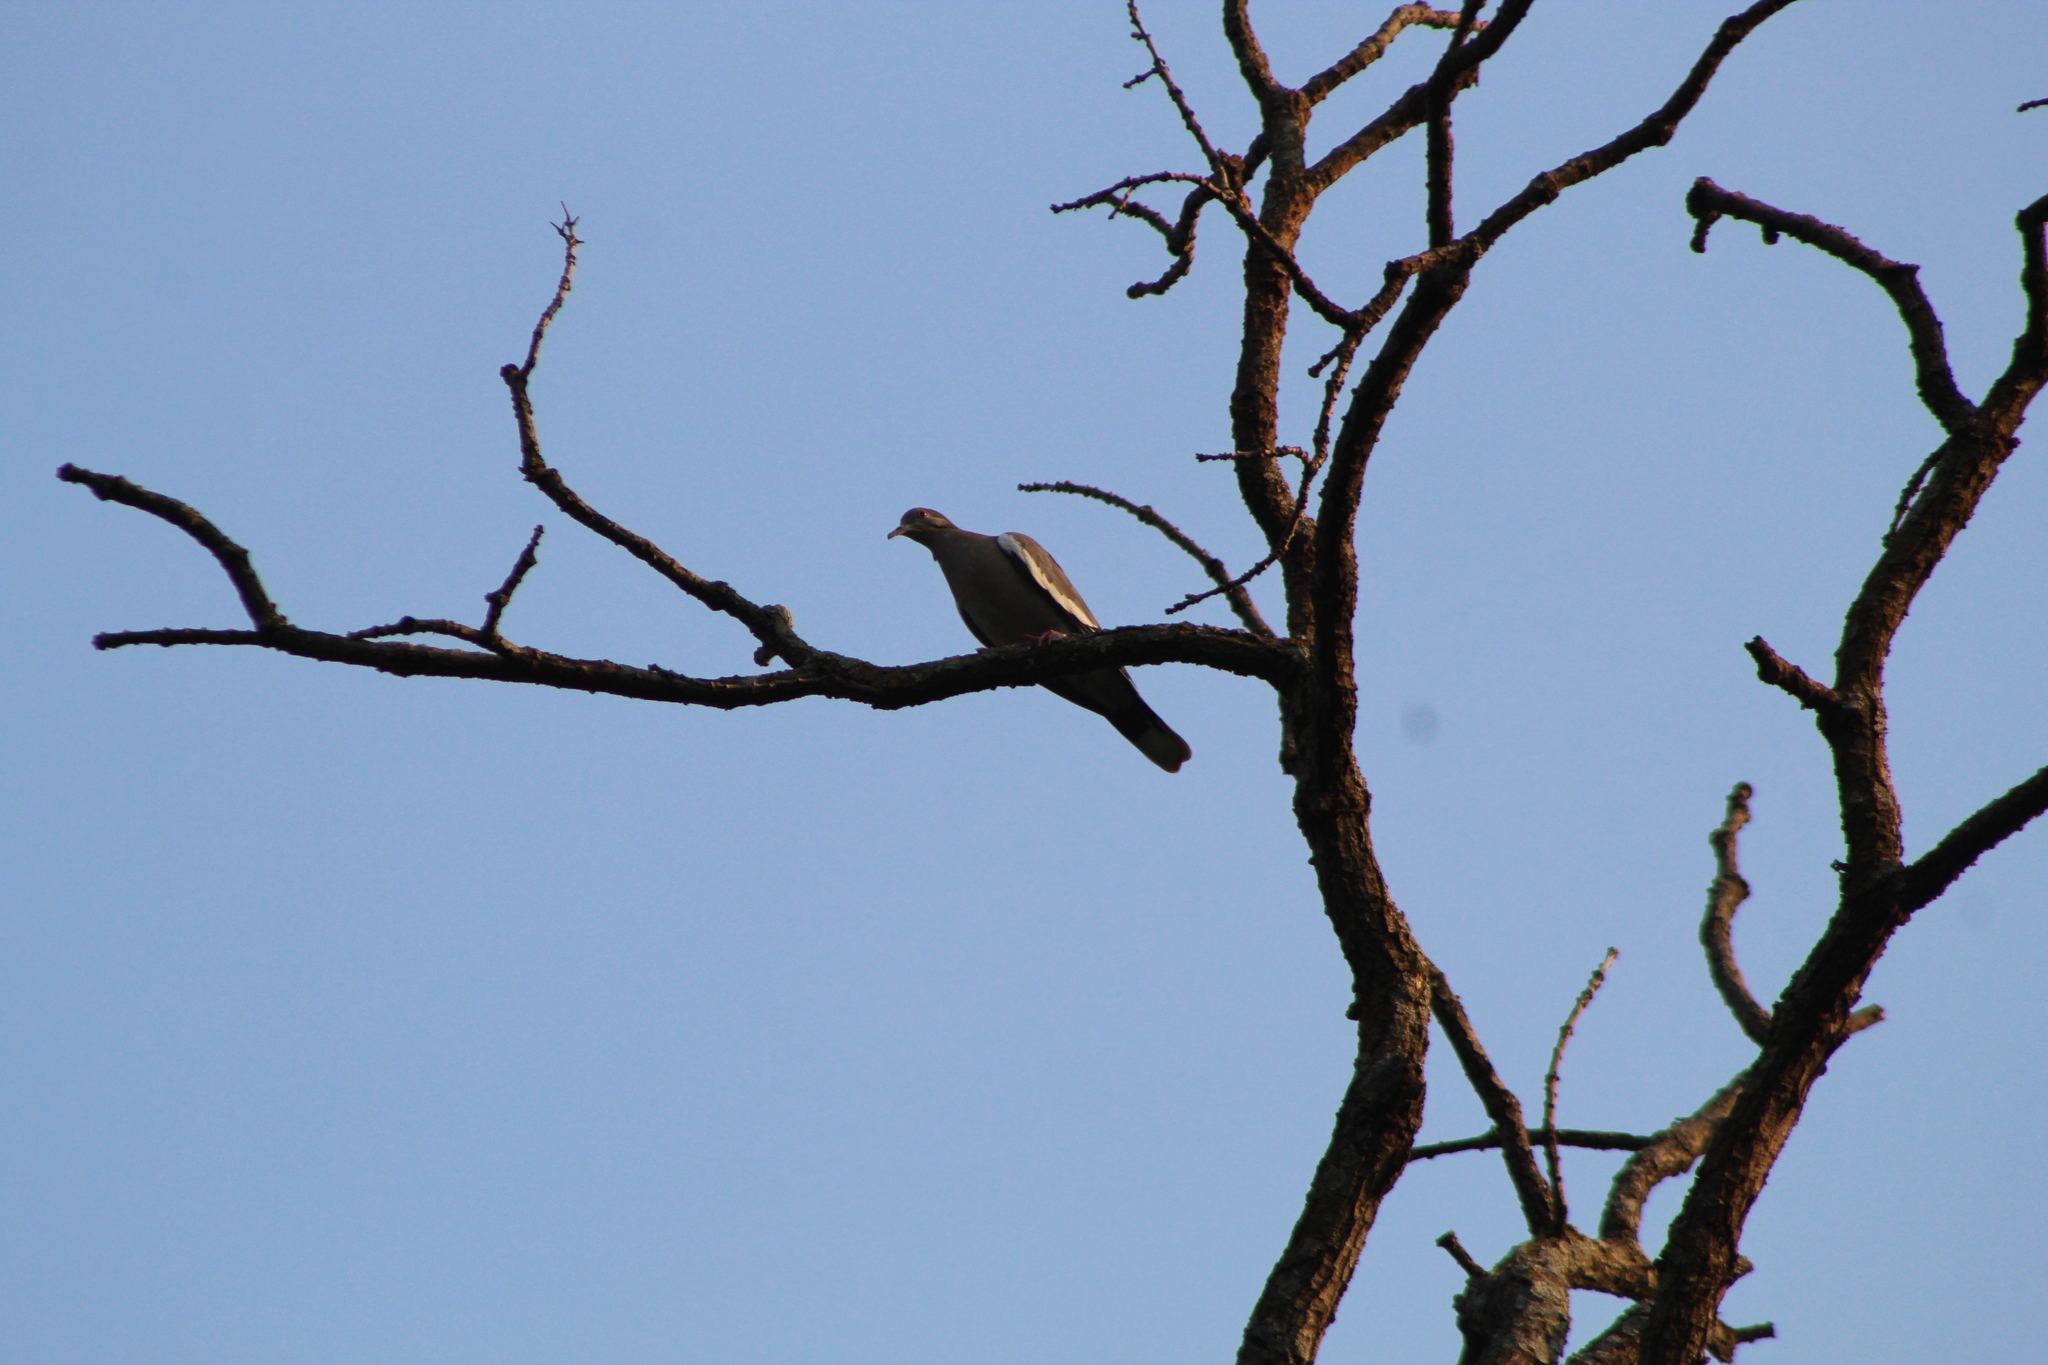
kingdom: Animalia
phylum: Chordata
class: Aves
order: Columbiformes
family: Columbidae
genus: Zenaida
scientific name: Zenaida asiatica
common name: White-winged dove
